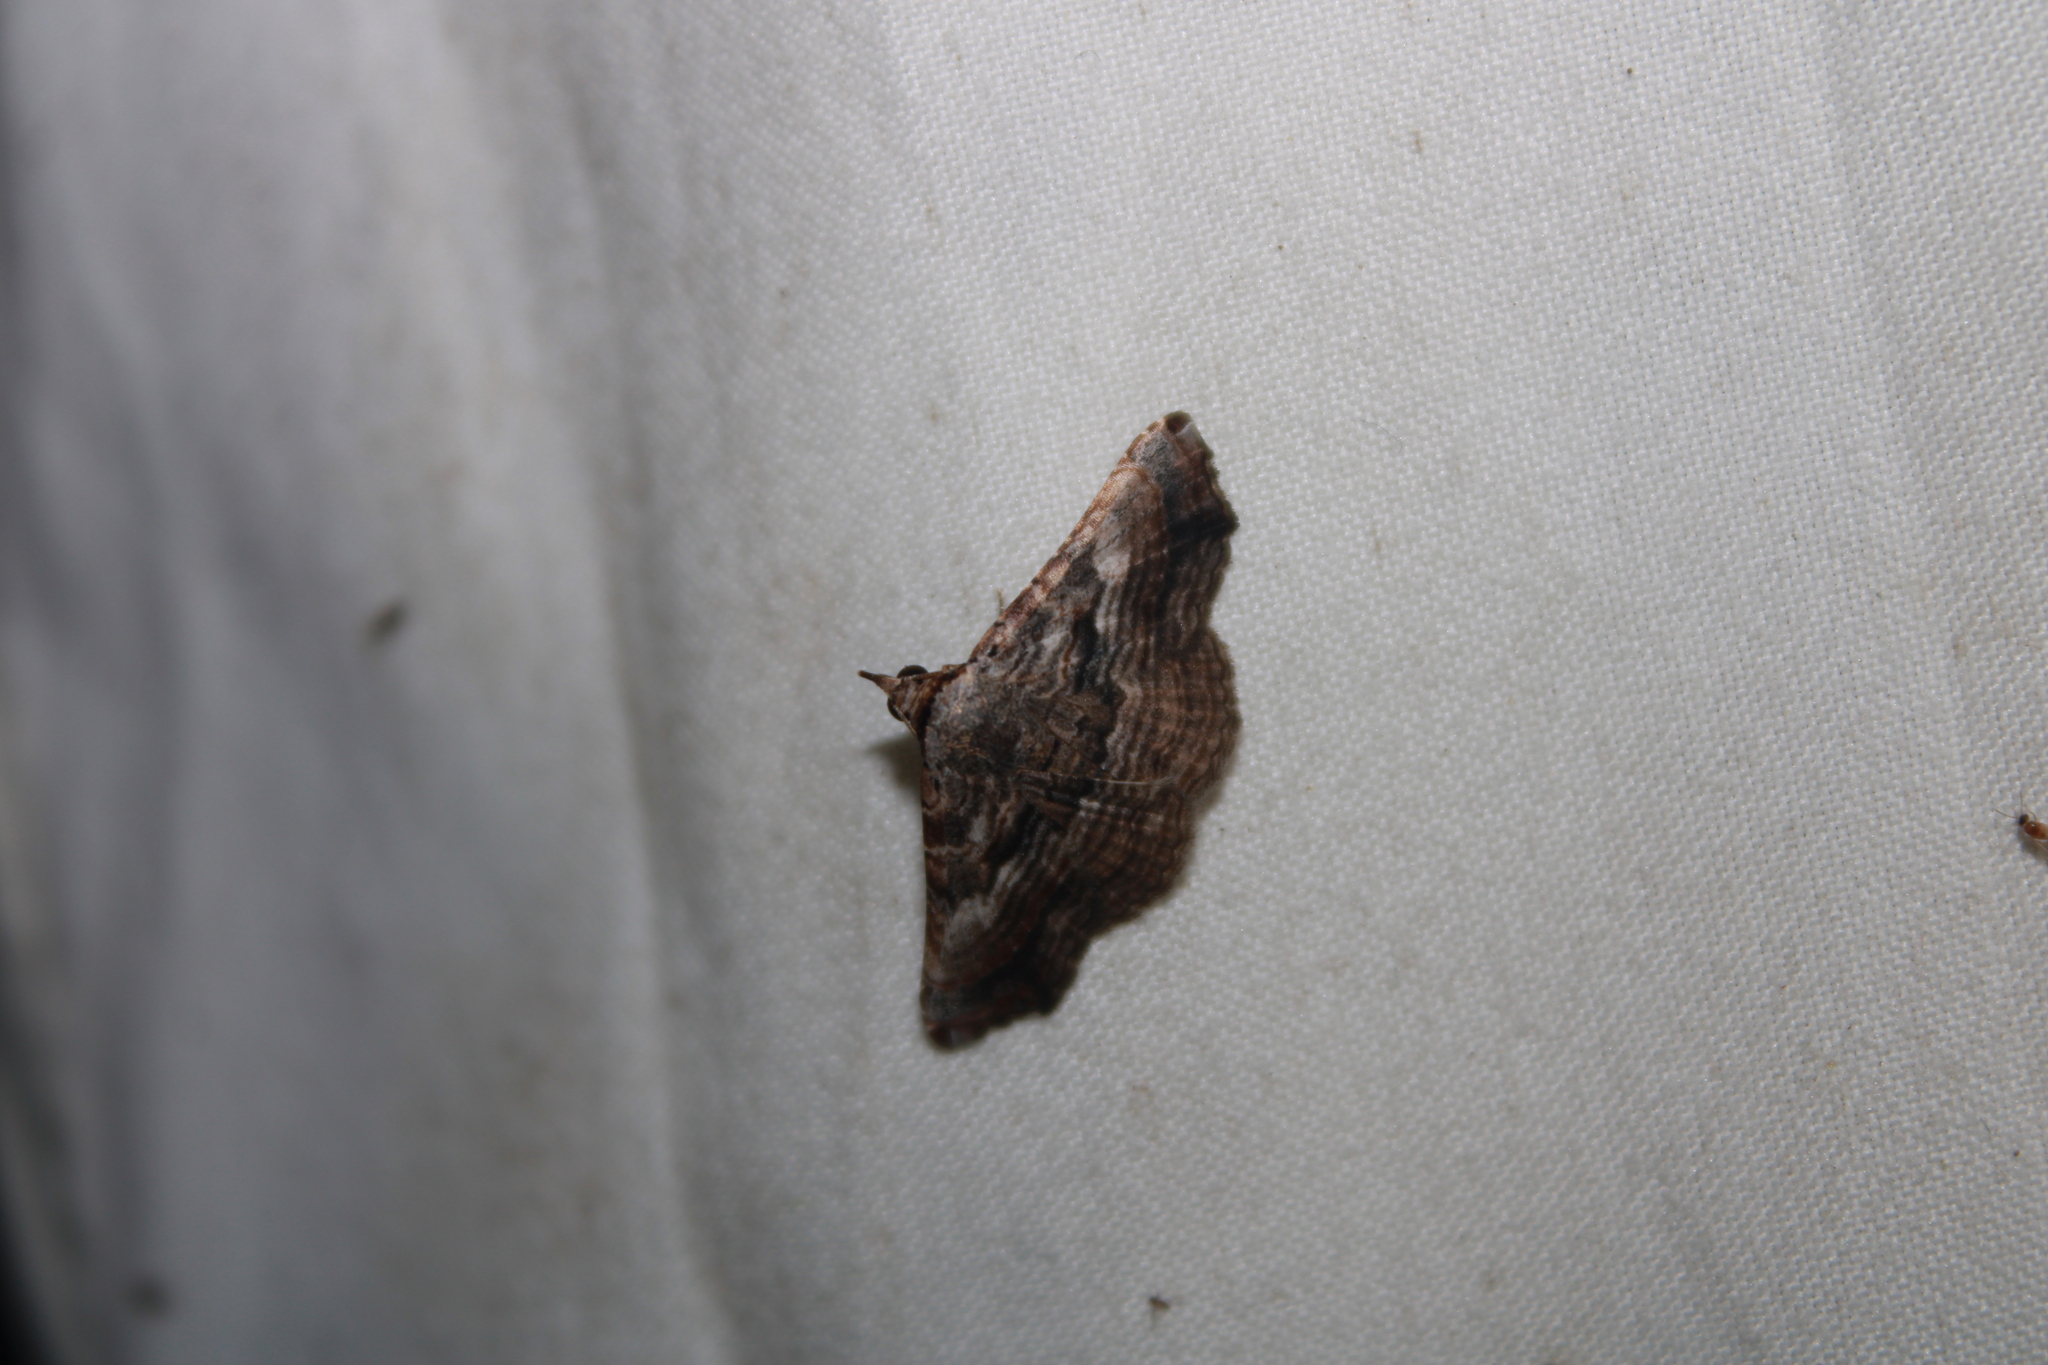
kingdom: Animalia
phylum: Arthropoda
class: Insecta
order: Lepidoptera
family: Erebidae
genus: Tyrissa
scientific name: Tyrissa multilinea
